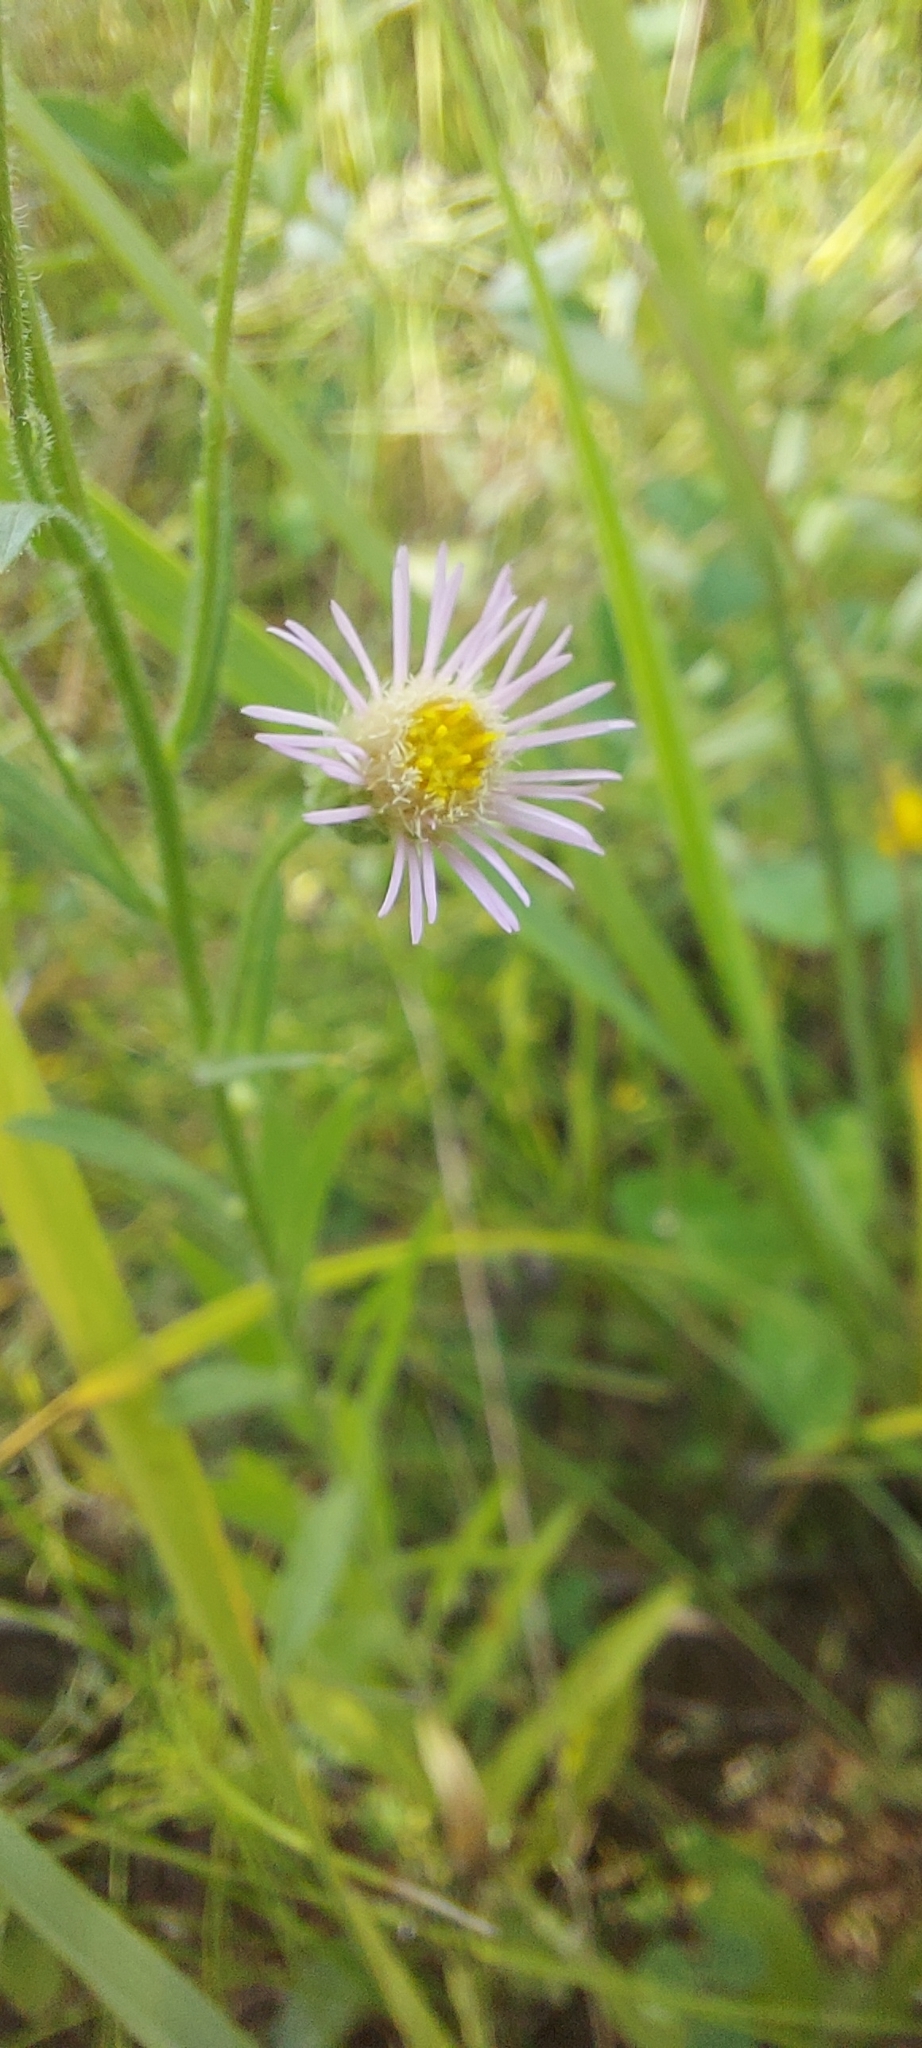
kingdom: Plantae
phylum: Tracheophyta
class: Magnoliopsida
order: Asterales
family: Asteraceae
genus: Erigeron
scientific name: Erigeron acris
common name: Blue fleabane
